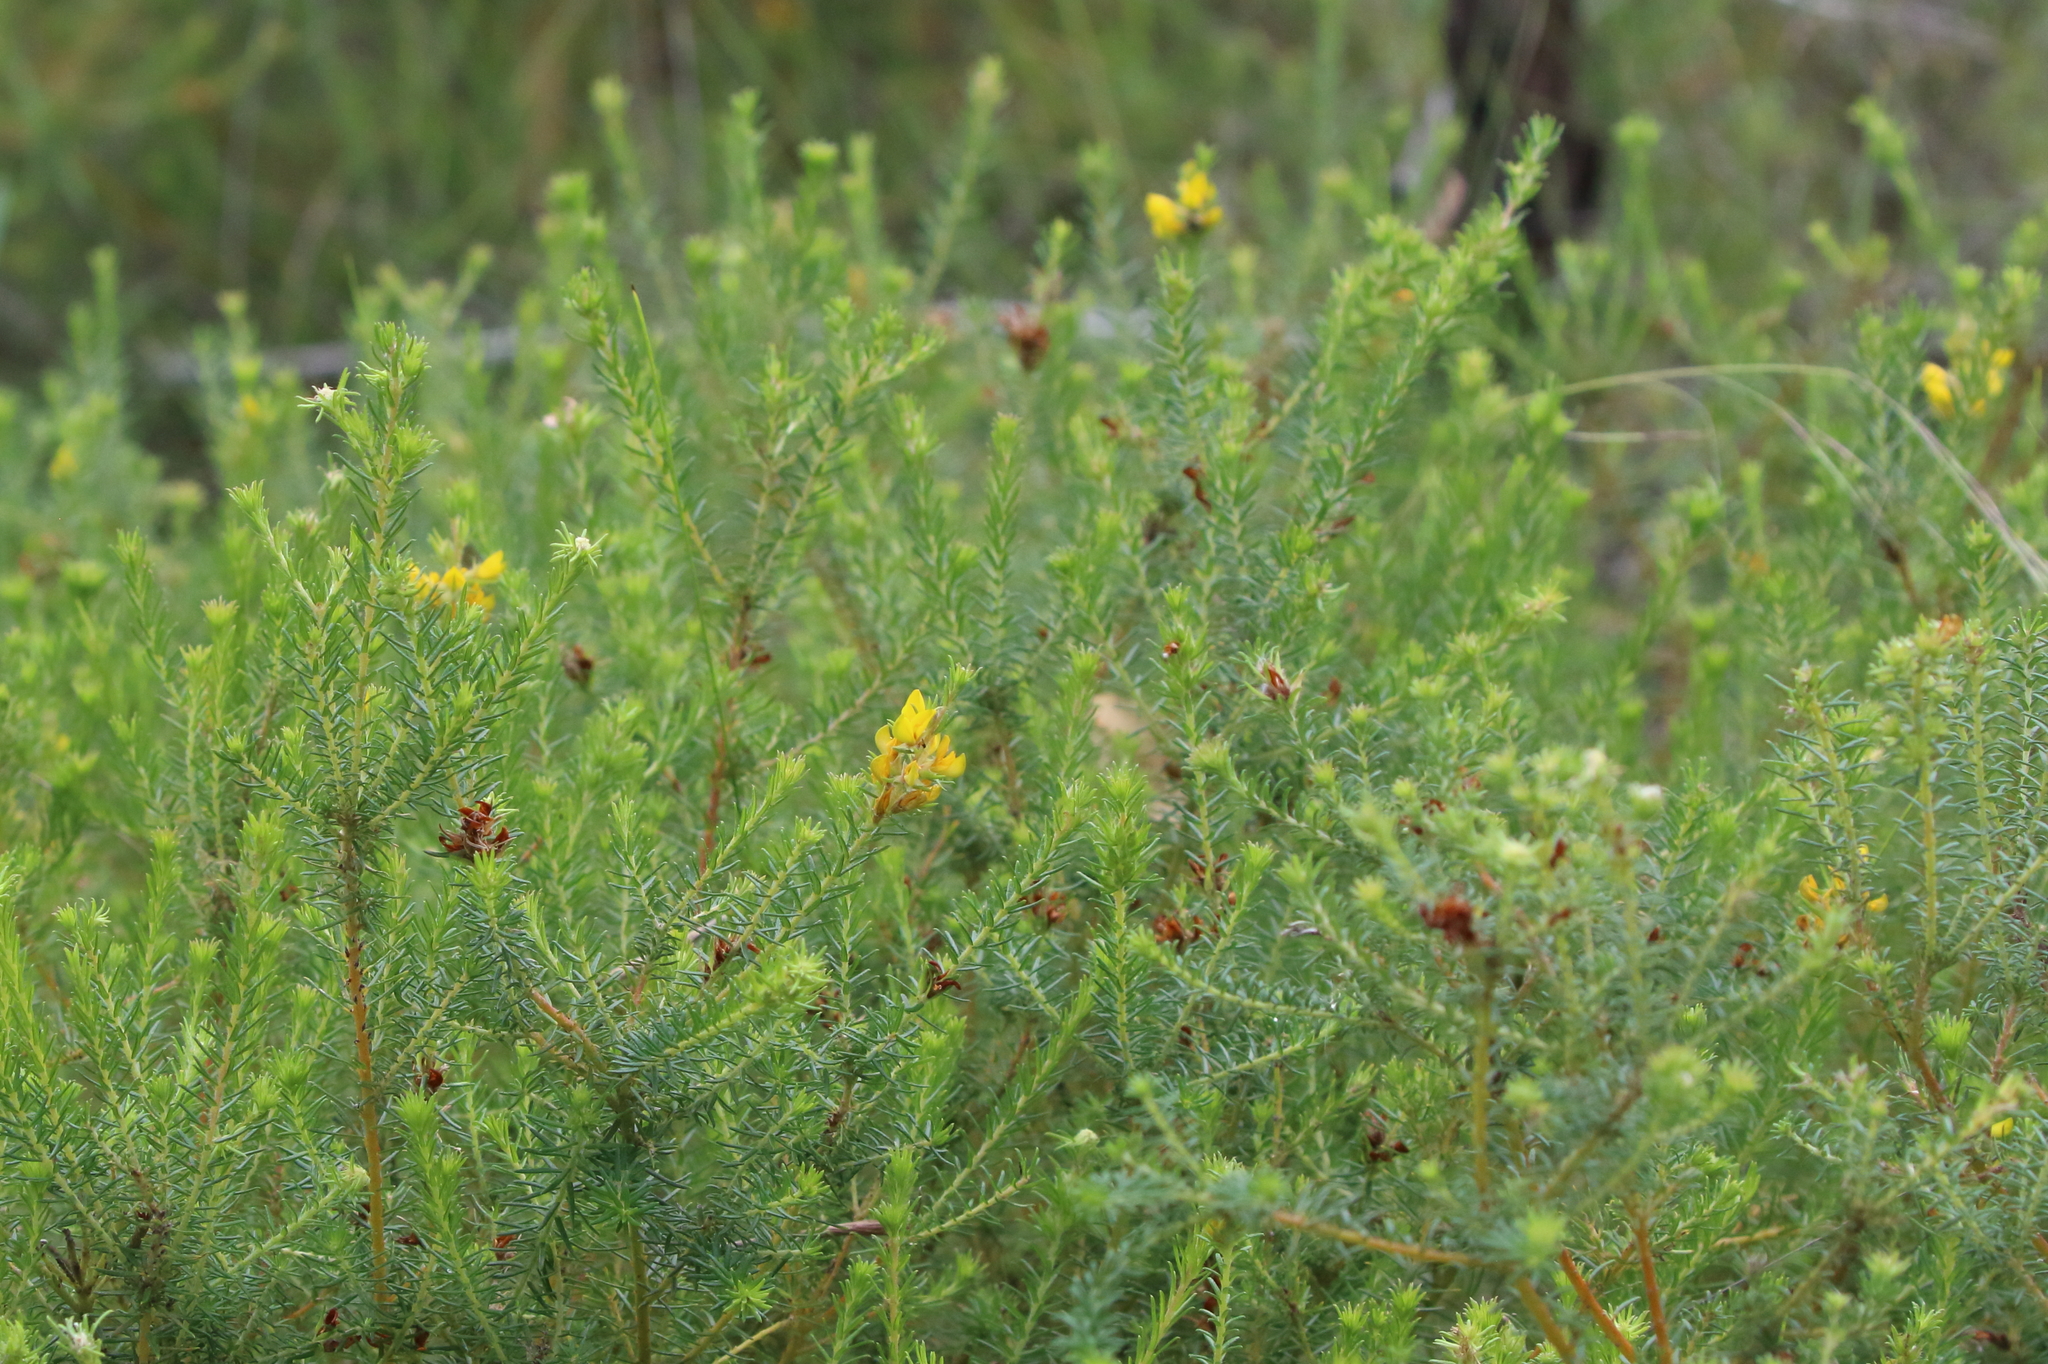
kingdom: Plantae
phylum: Tracheophyta
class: Magnoliopsida
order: Fabales
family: Fabaceae
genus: Phyllota
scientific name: Phyllota phylicoides
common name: Heath phyllota
